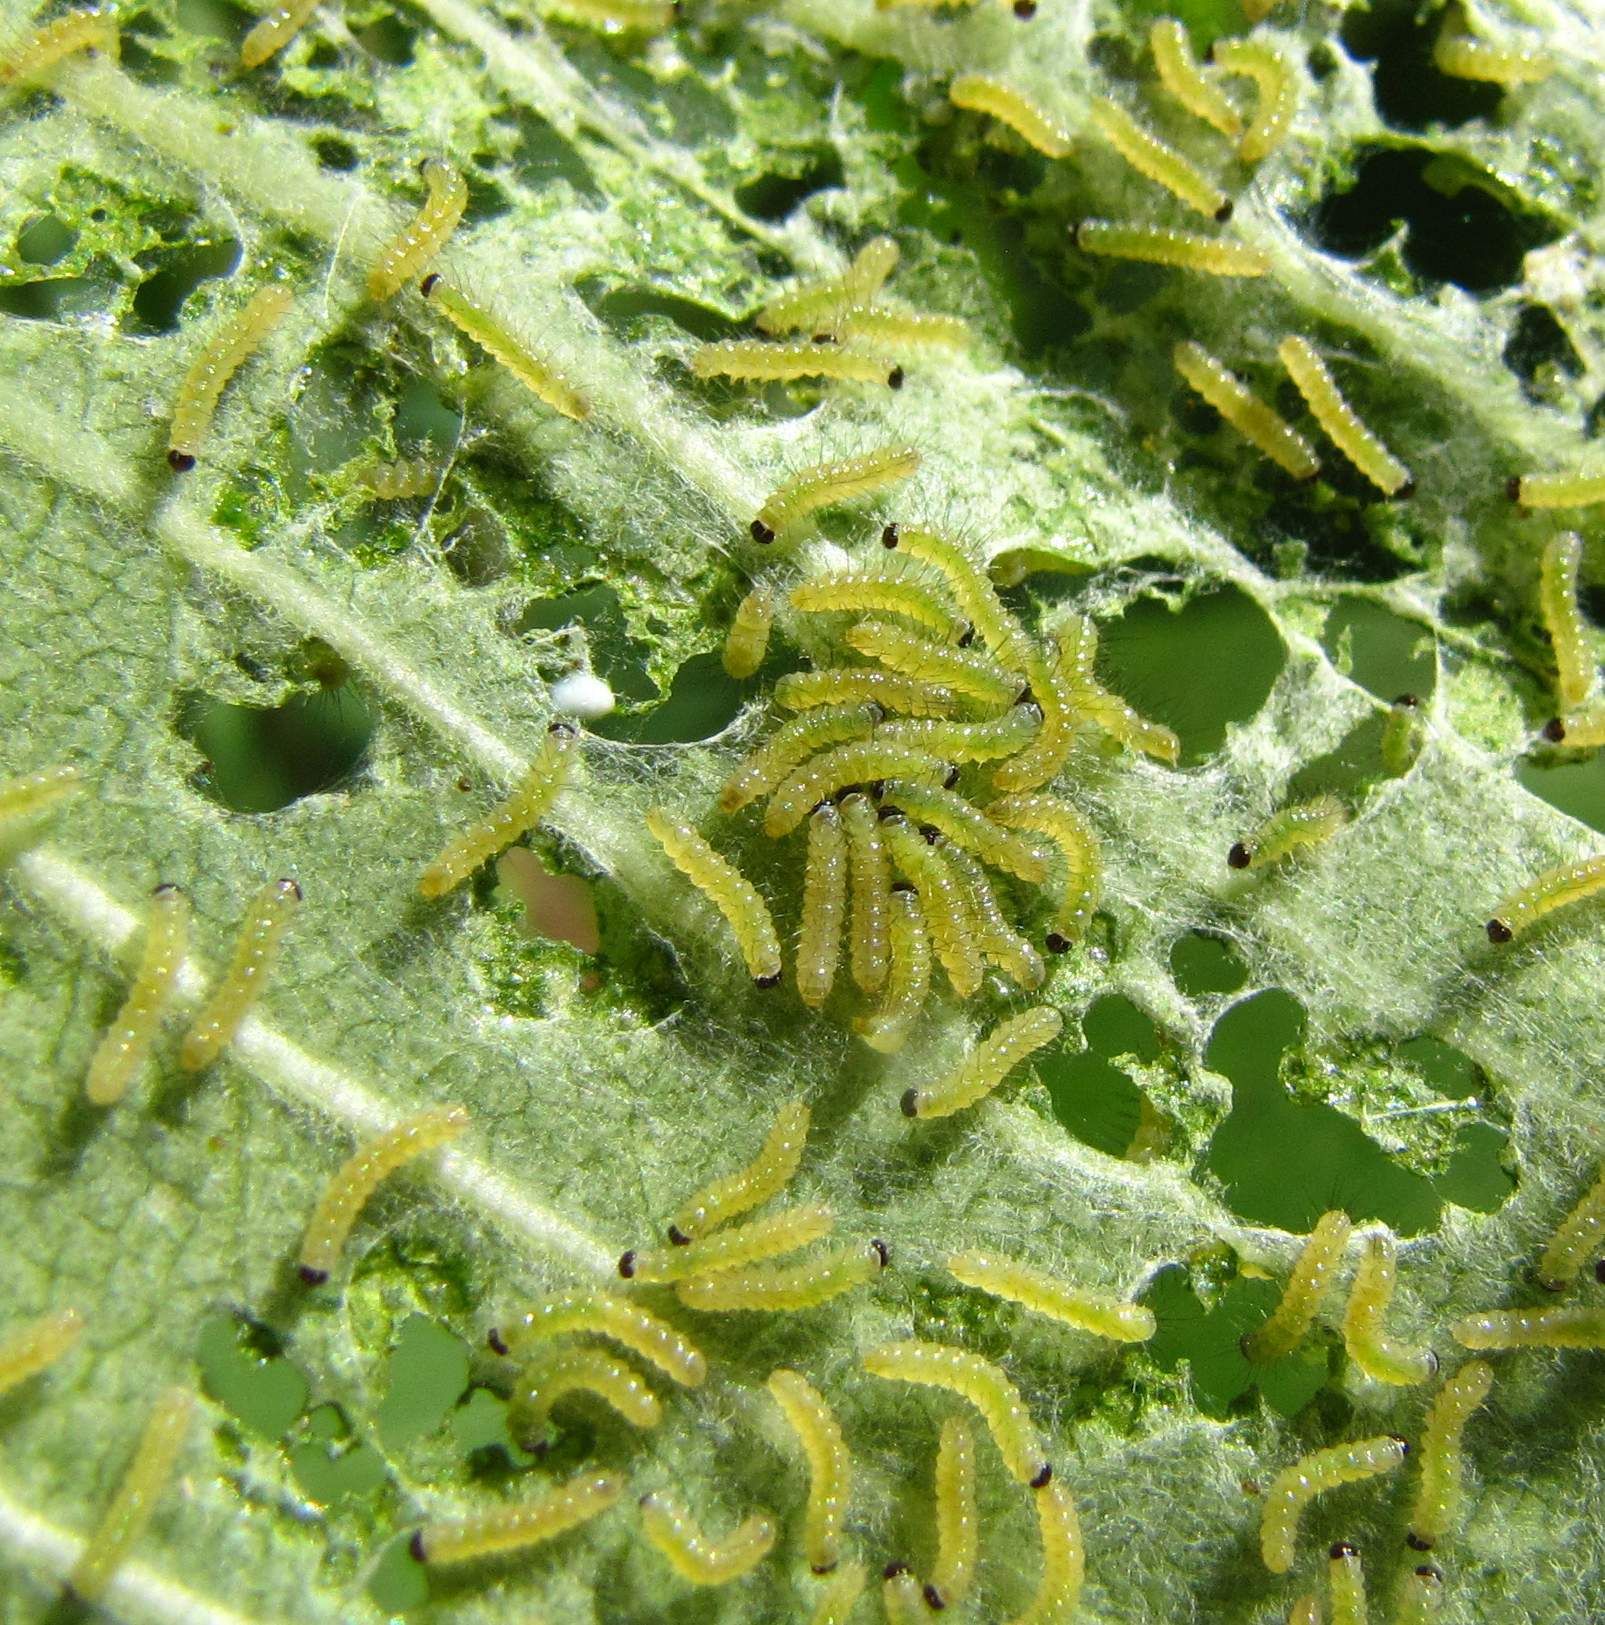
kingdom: Animalia
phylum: Arthropoda
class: Insecta
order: Lepidoptera
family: Erebidae
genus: Euchaetes
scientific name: Euchaetes egle
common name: Milkweed tussock moth
